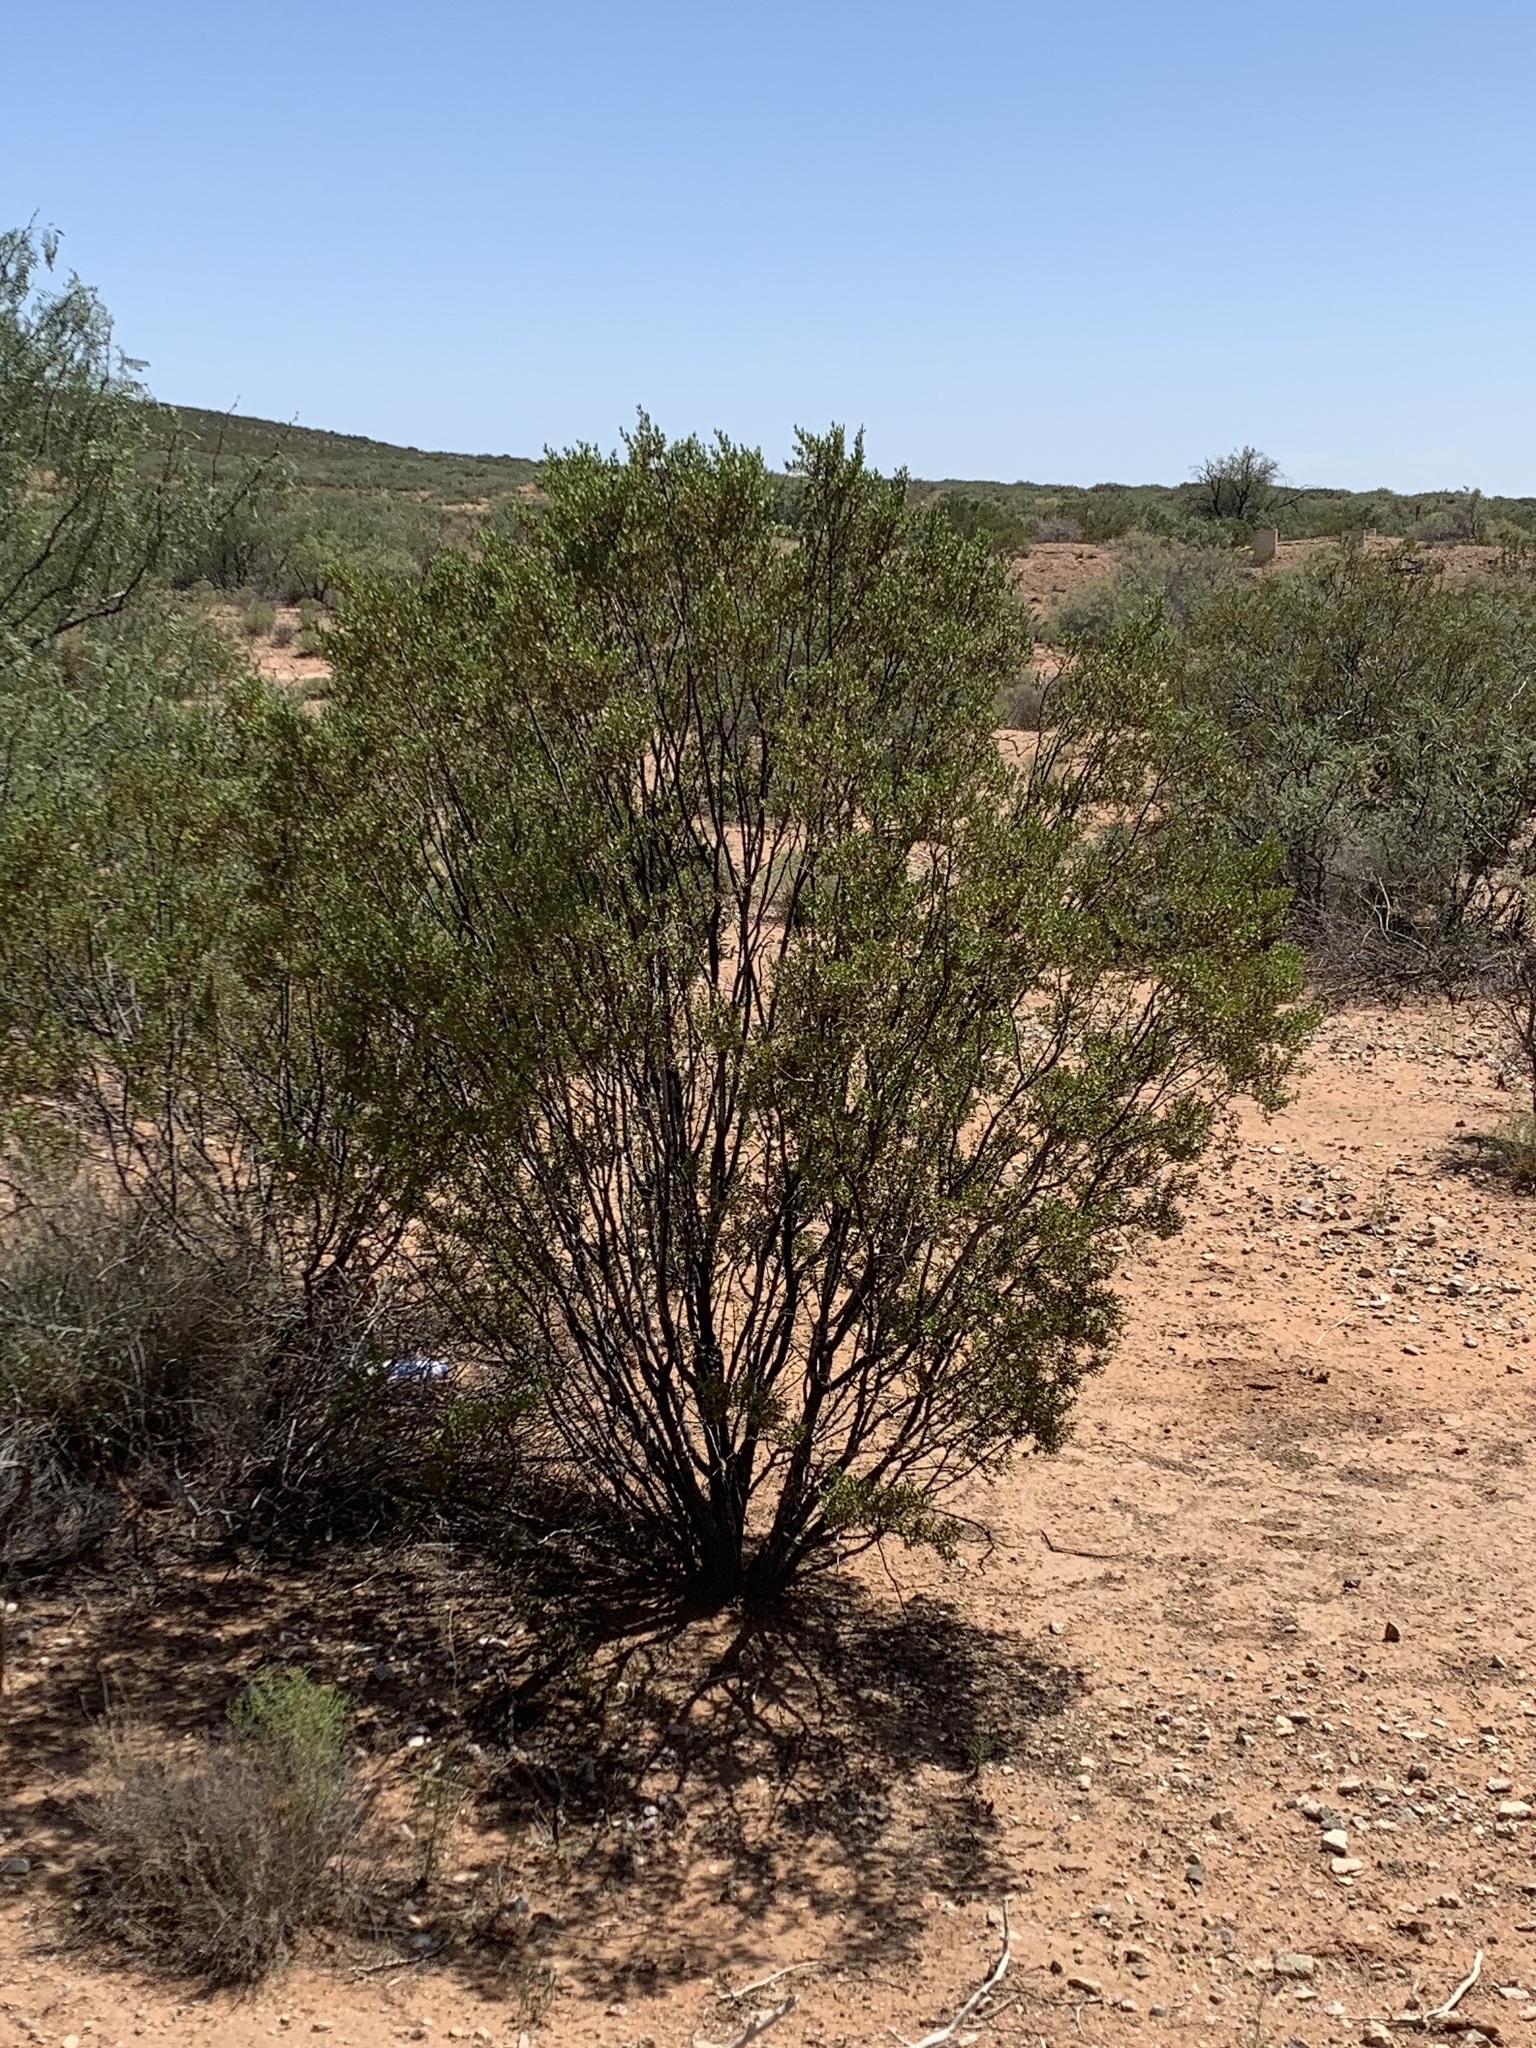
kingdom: Plantae
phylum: Tracheophyta
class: Magnoliopsida
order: Zygophyllales
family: Zygophyllaceae
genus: Larrea
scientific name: Larrea tridentata
